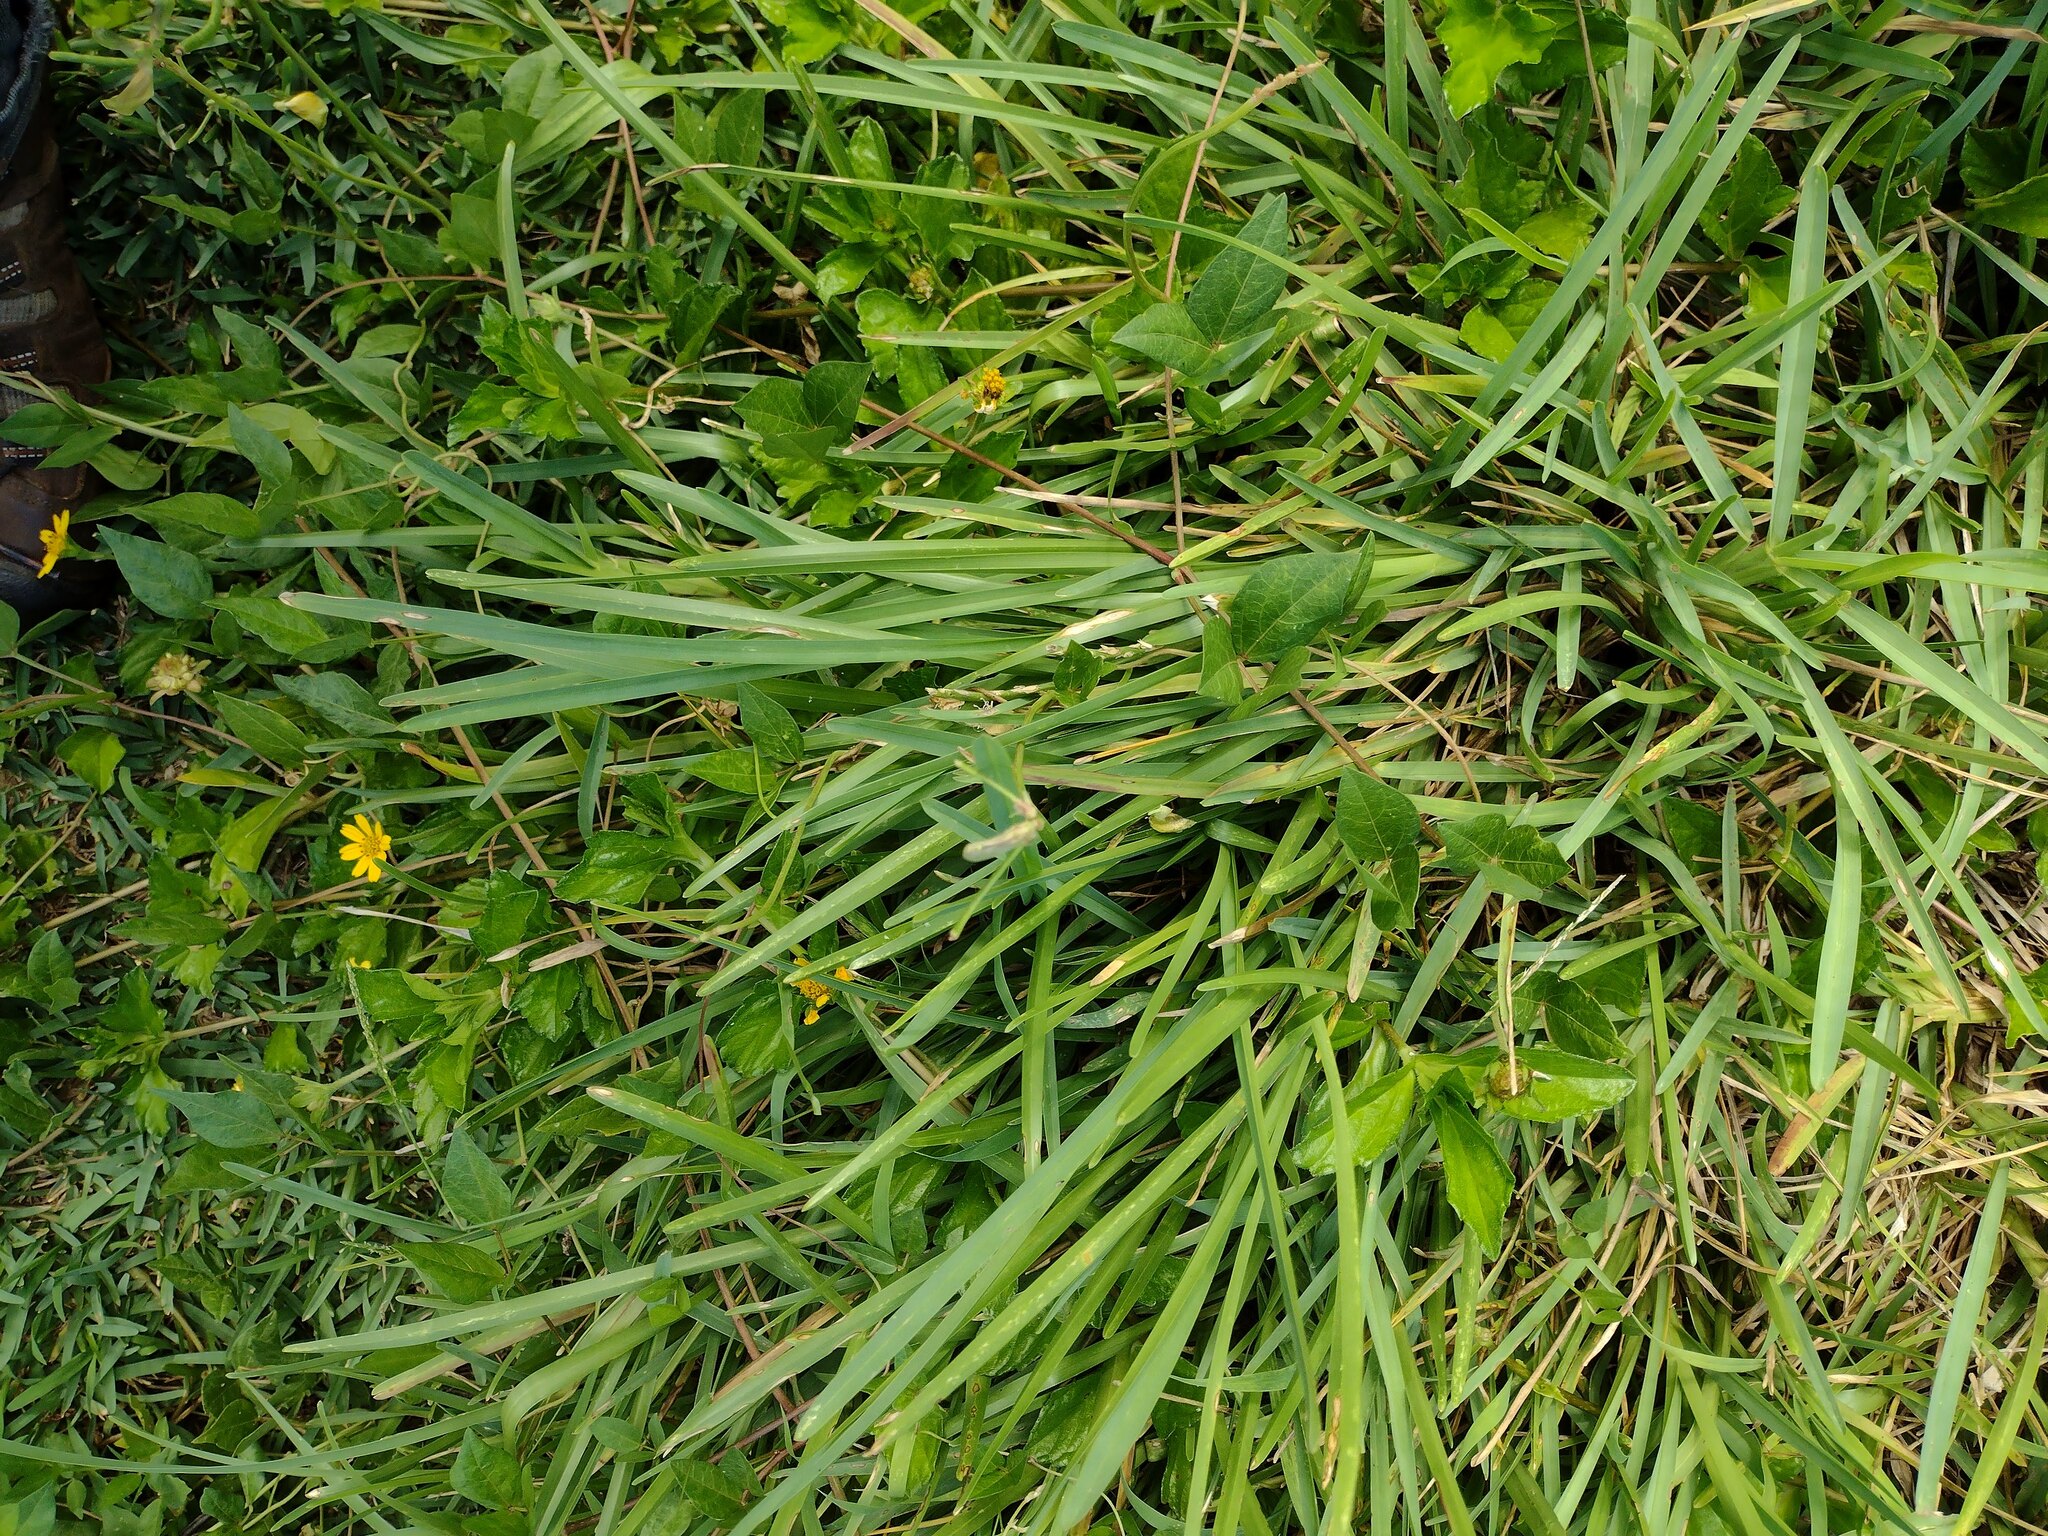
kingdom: Plantae
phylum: Tracheophyta
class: Liliopsida
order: Poales
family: Poaceae
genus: Stenotaphrum
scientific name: Stenotaphrum secundatum
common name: St. augustine grass
